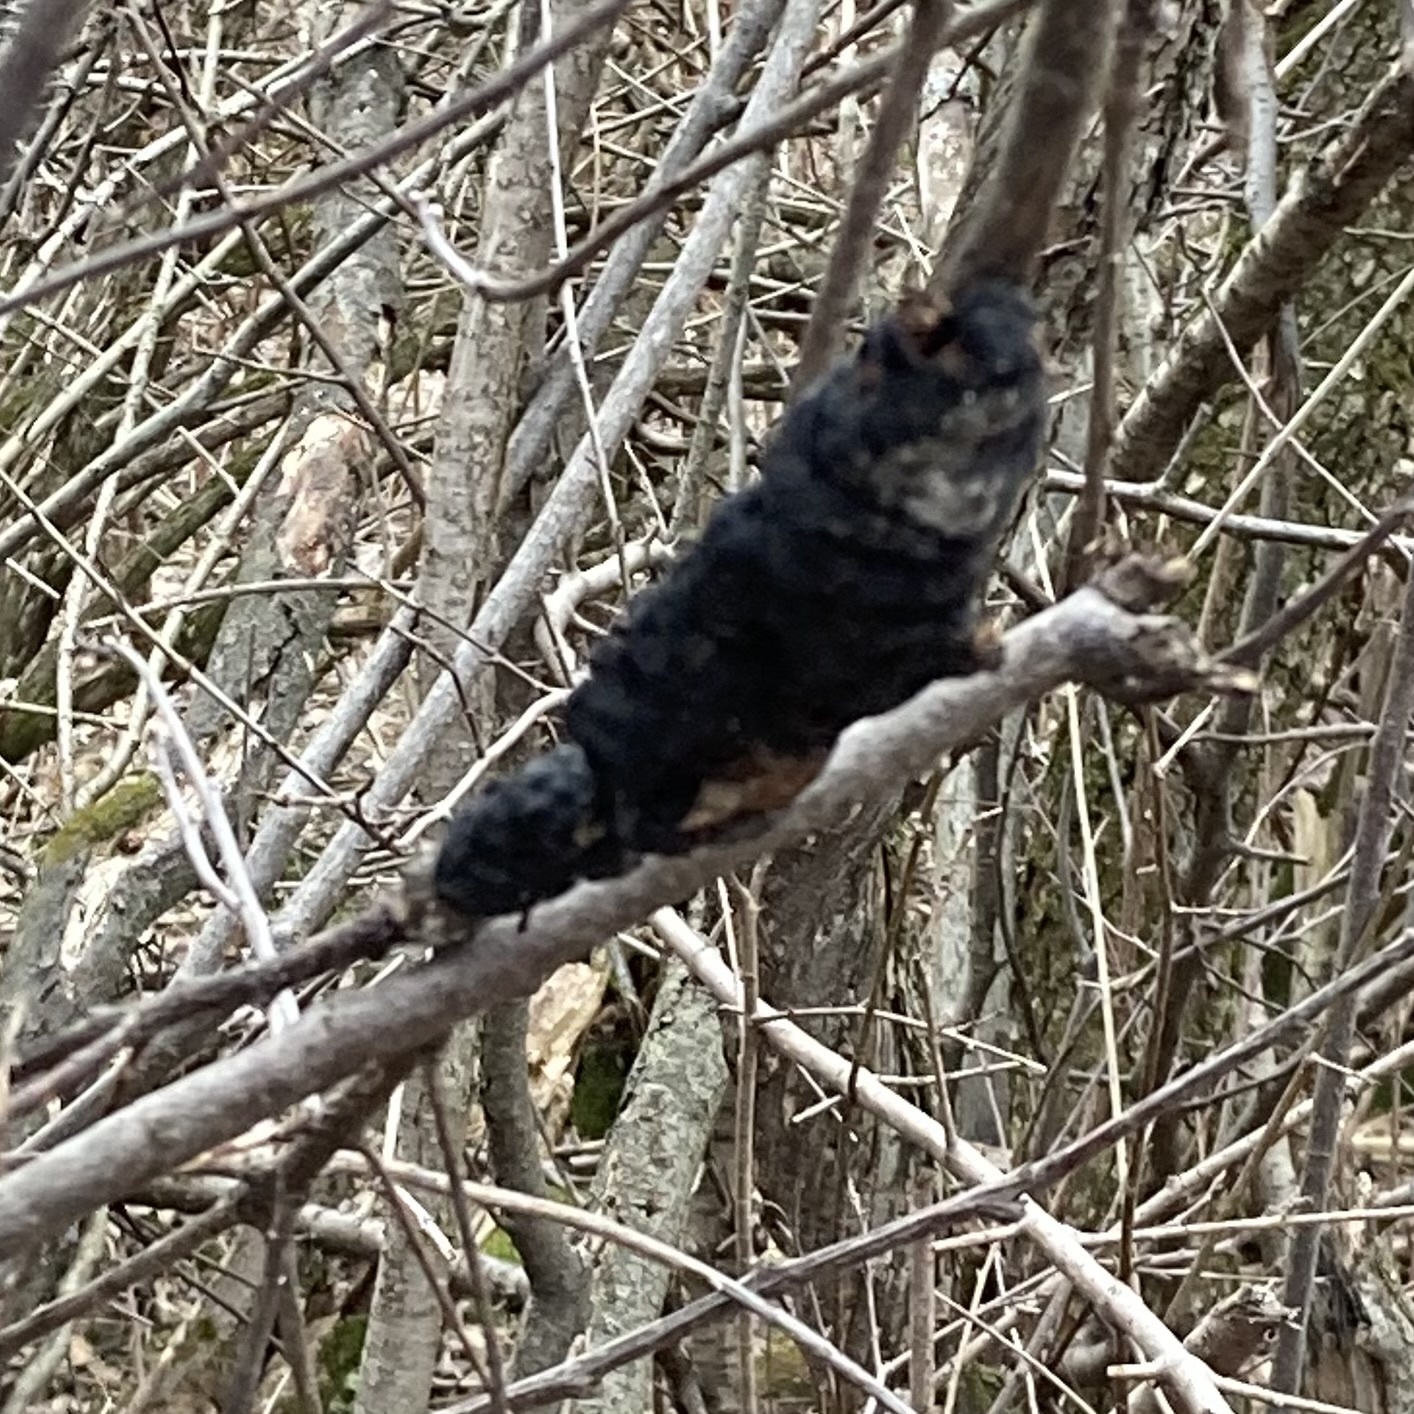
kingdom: Fungi
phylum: Ascomycota
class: Dothideomycetes
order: Venturiales
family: Venturiaceae
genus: Apiosporina
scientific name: Apiosporina morbosa
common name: Black knot
